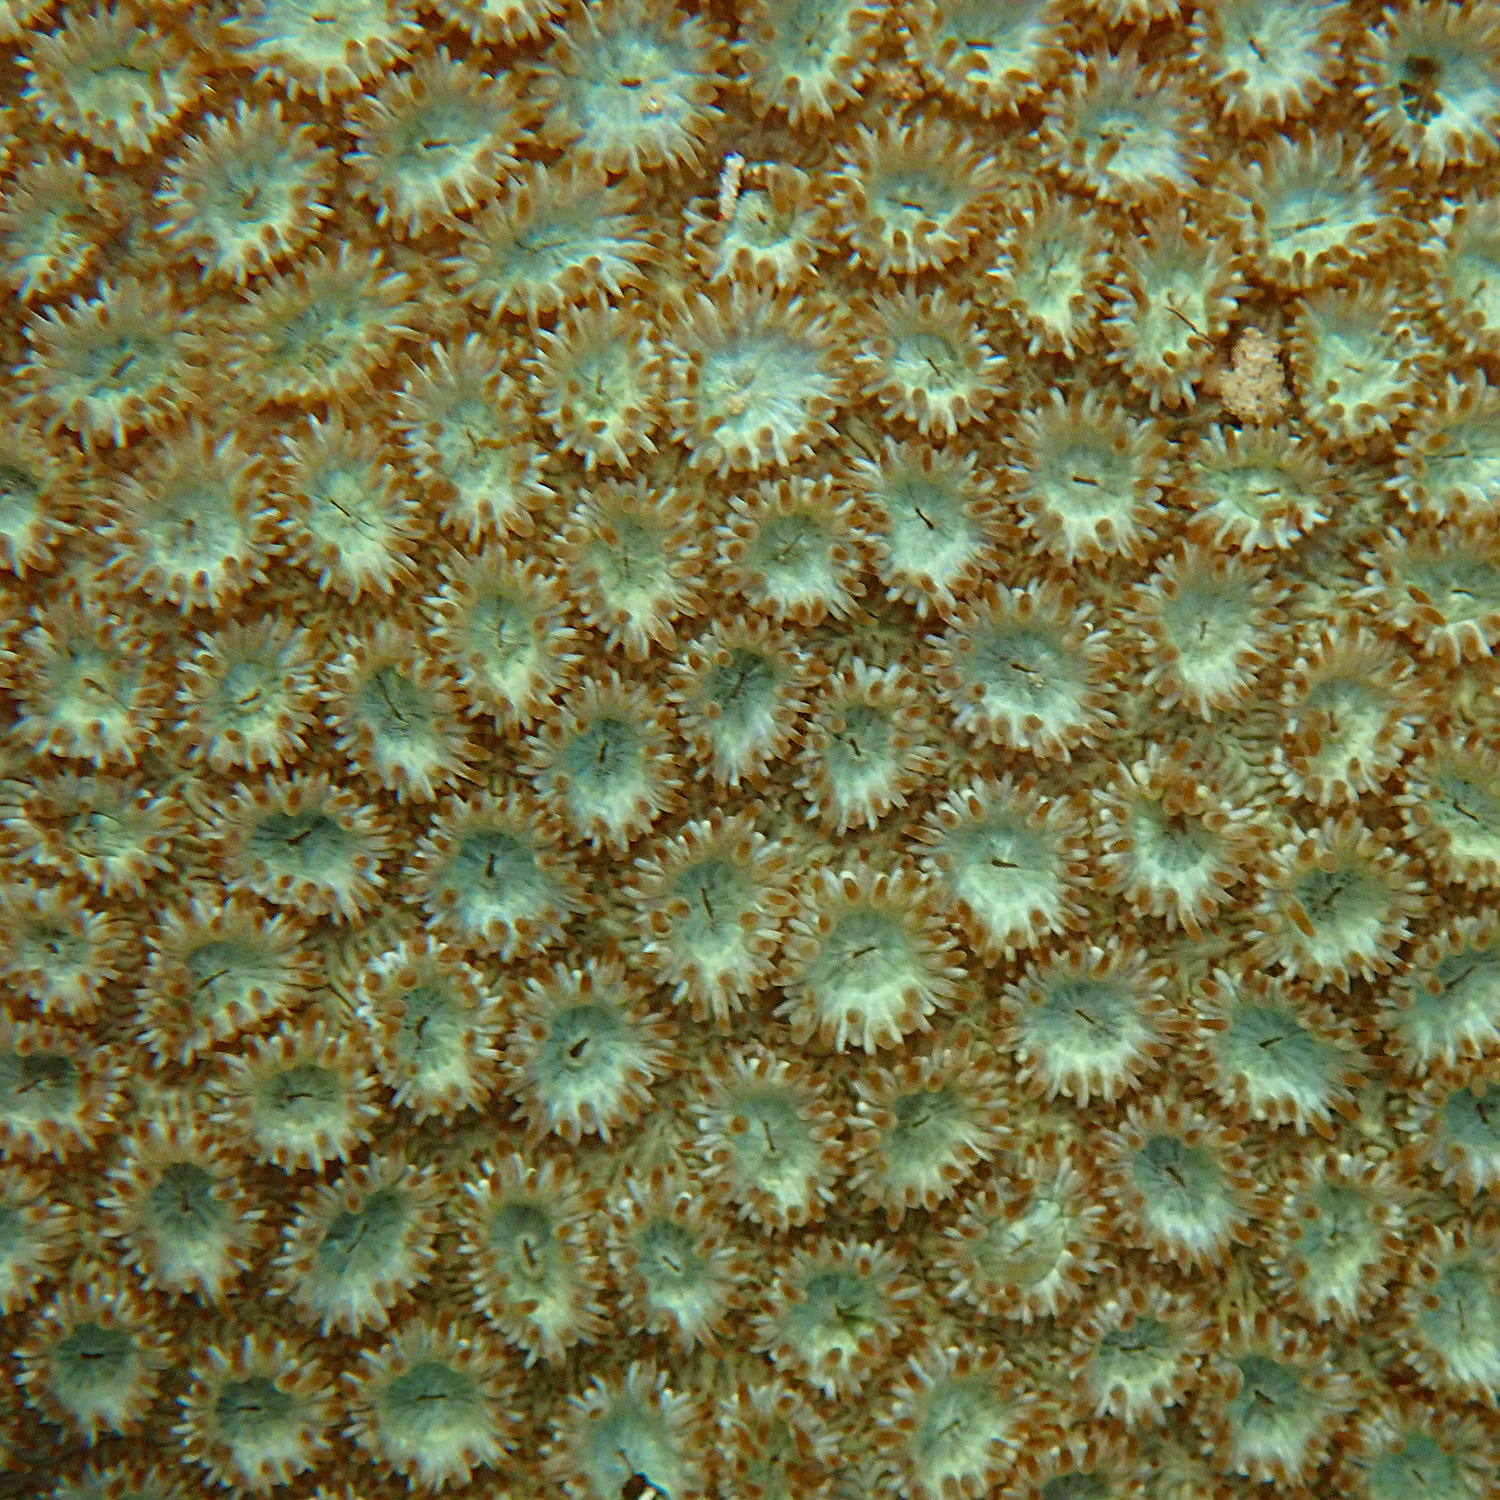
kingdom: Animalia
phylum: Cnidaria
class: Anthozoa
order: Scleractinia
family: Plesiastreidae
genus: Plesiastrea
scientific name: Plesiastrea versipora
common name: Small knob coral
